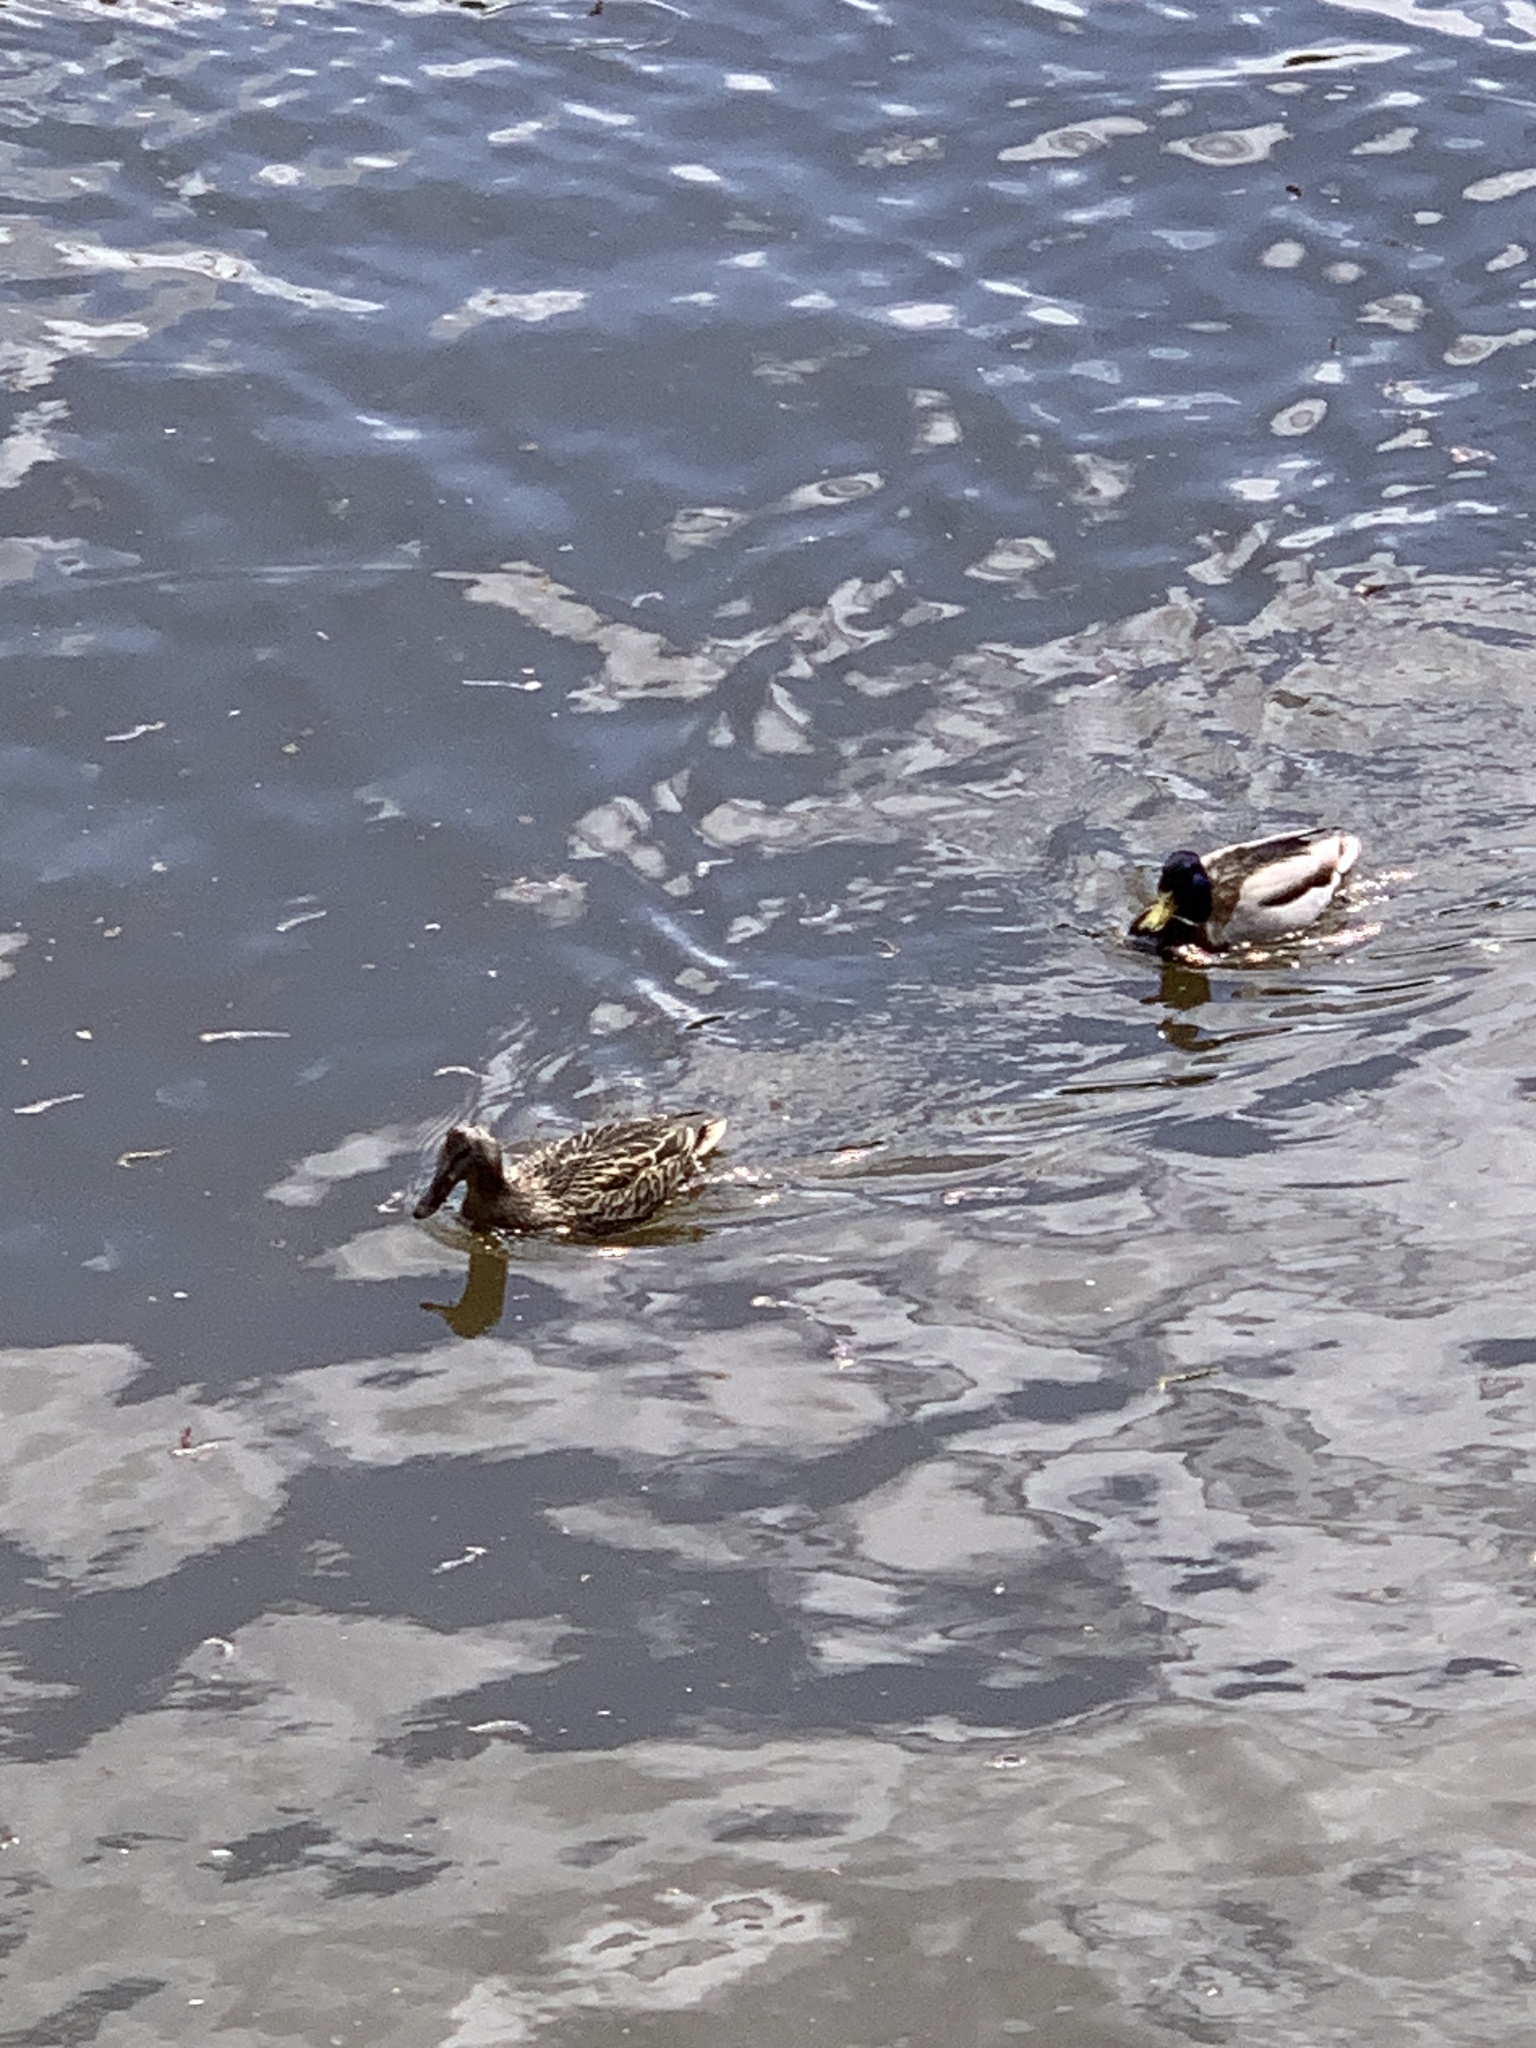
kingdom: Animalia
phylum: Chordata
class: Aves
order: Anseriformes
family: Anatidae
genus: Anas
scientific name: Anas platyrhynchos
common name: Mallard
